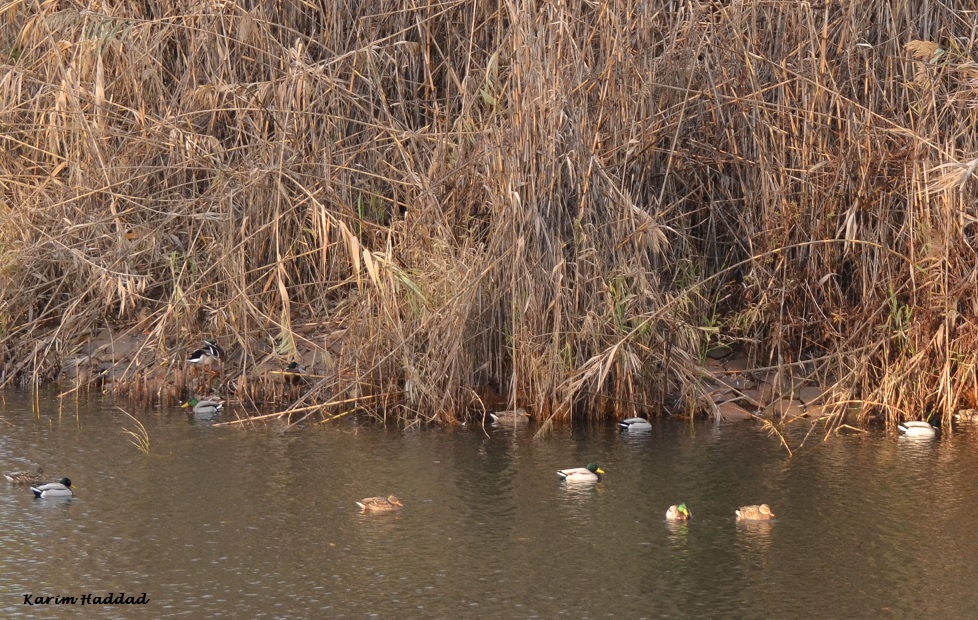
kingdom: Animalia
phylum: Chordata
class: Aves
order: Anseriformes
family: Anatidae
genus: Anas
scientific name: Anas platyrhynchos
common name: Mallard
